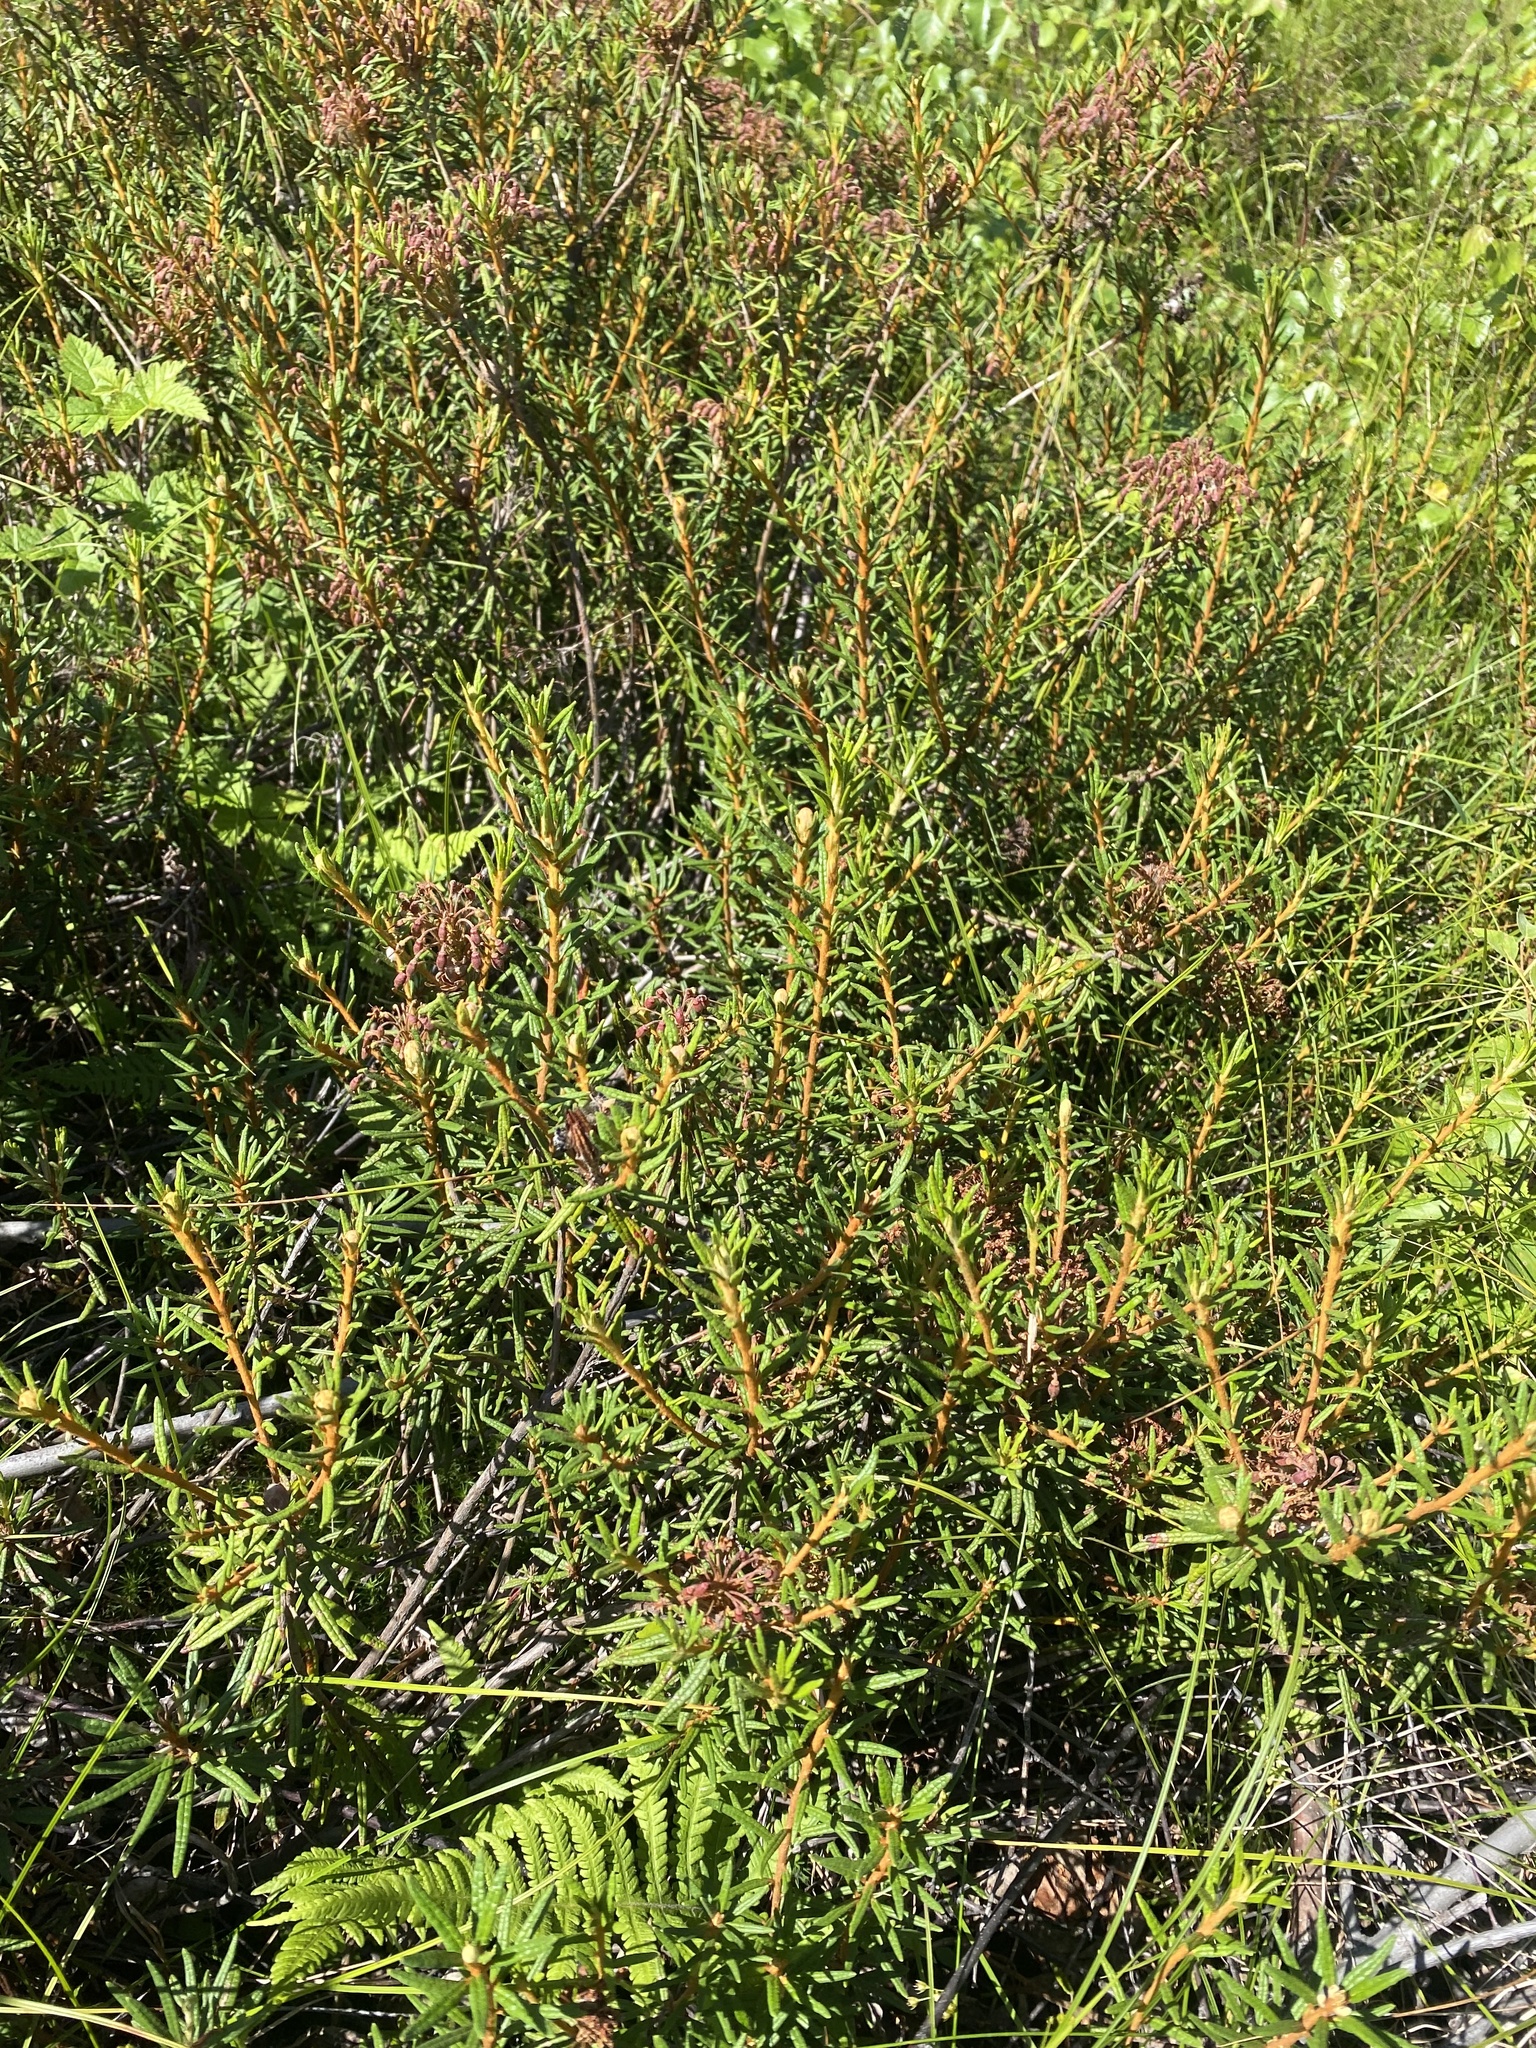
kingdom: Plantae
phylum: Tracheophyta
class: Magnoliopsida
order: Ericales
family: Ericaceae
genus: Rhododendron
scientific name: Rhododendron tomentosum
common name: Marsh labrador tea
